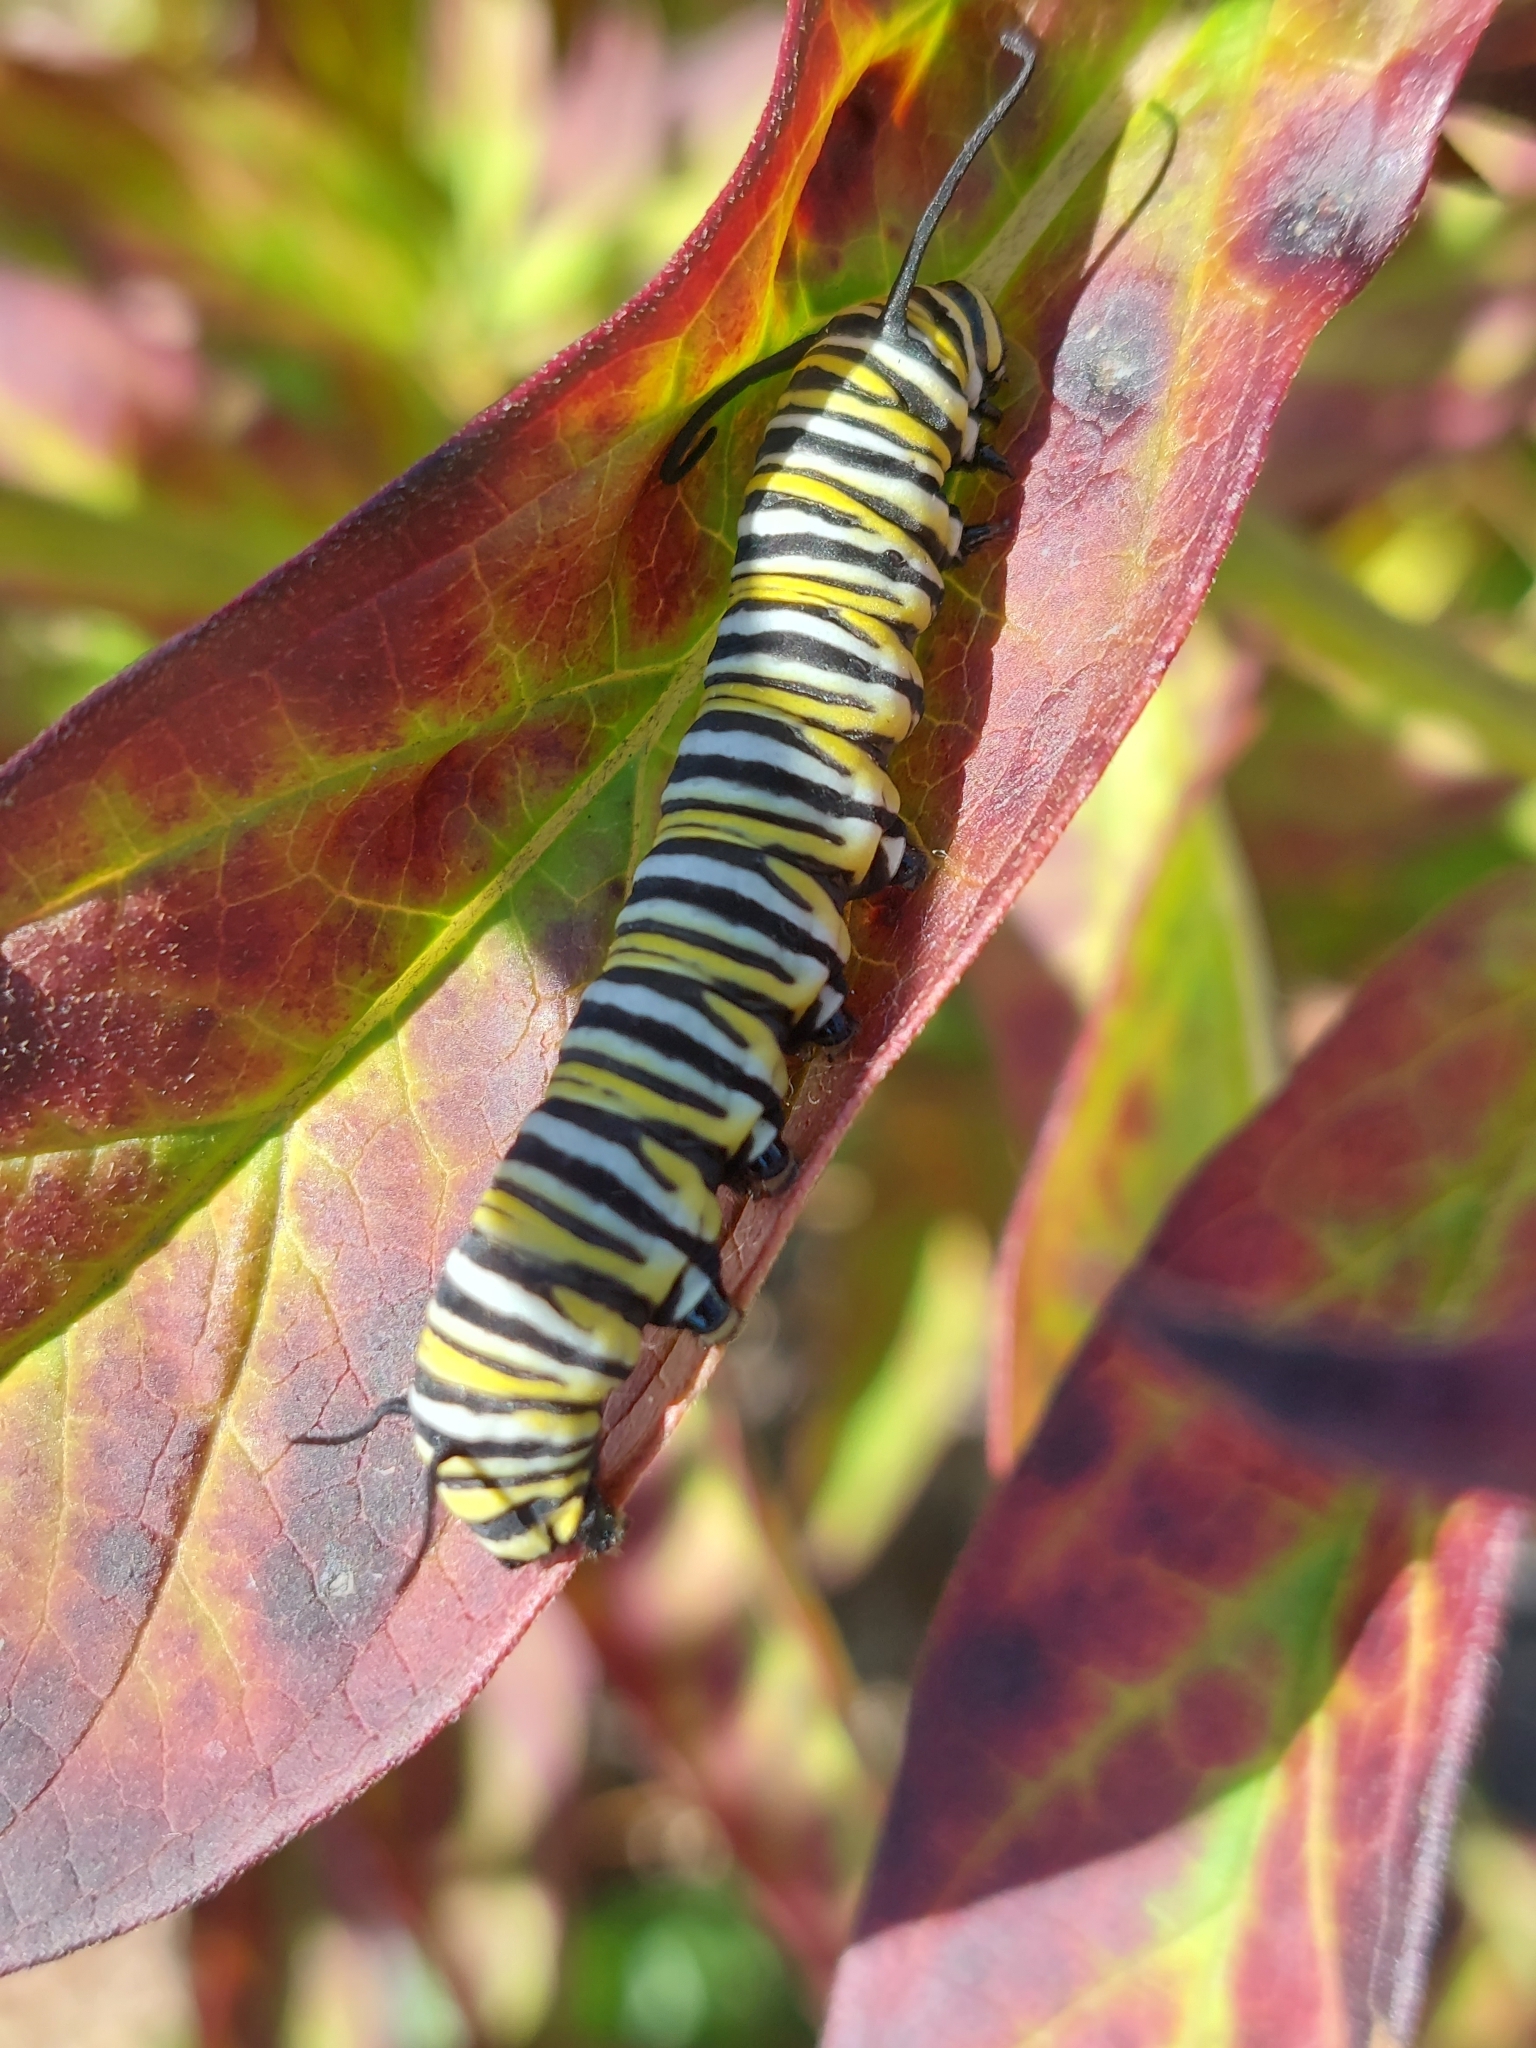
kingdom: Animalia
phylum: Arthropoda
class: Insecta
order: Lepidoptera
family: Nymphalidae
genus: Danaus
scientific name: Danaus plexippus
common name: Monarch
